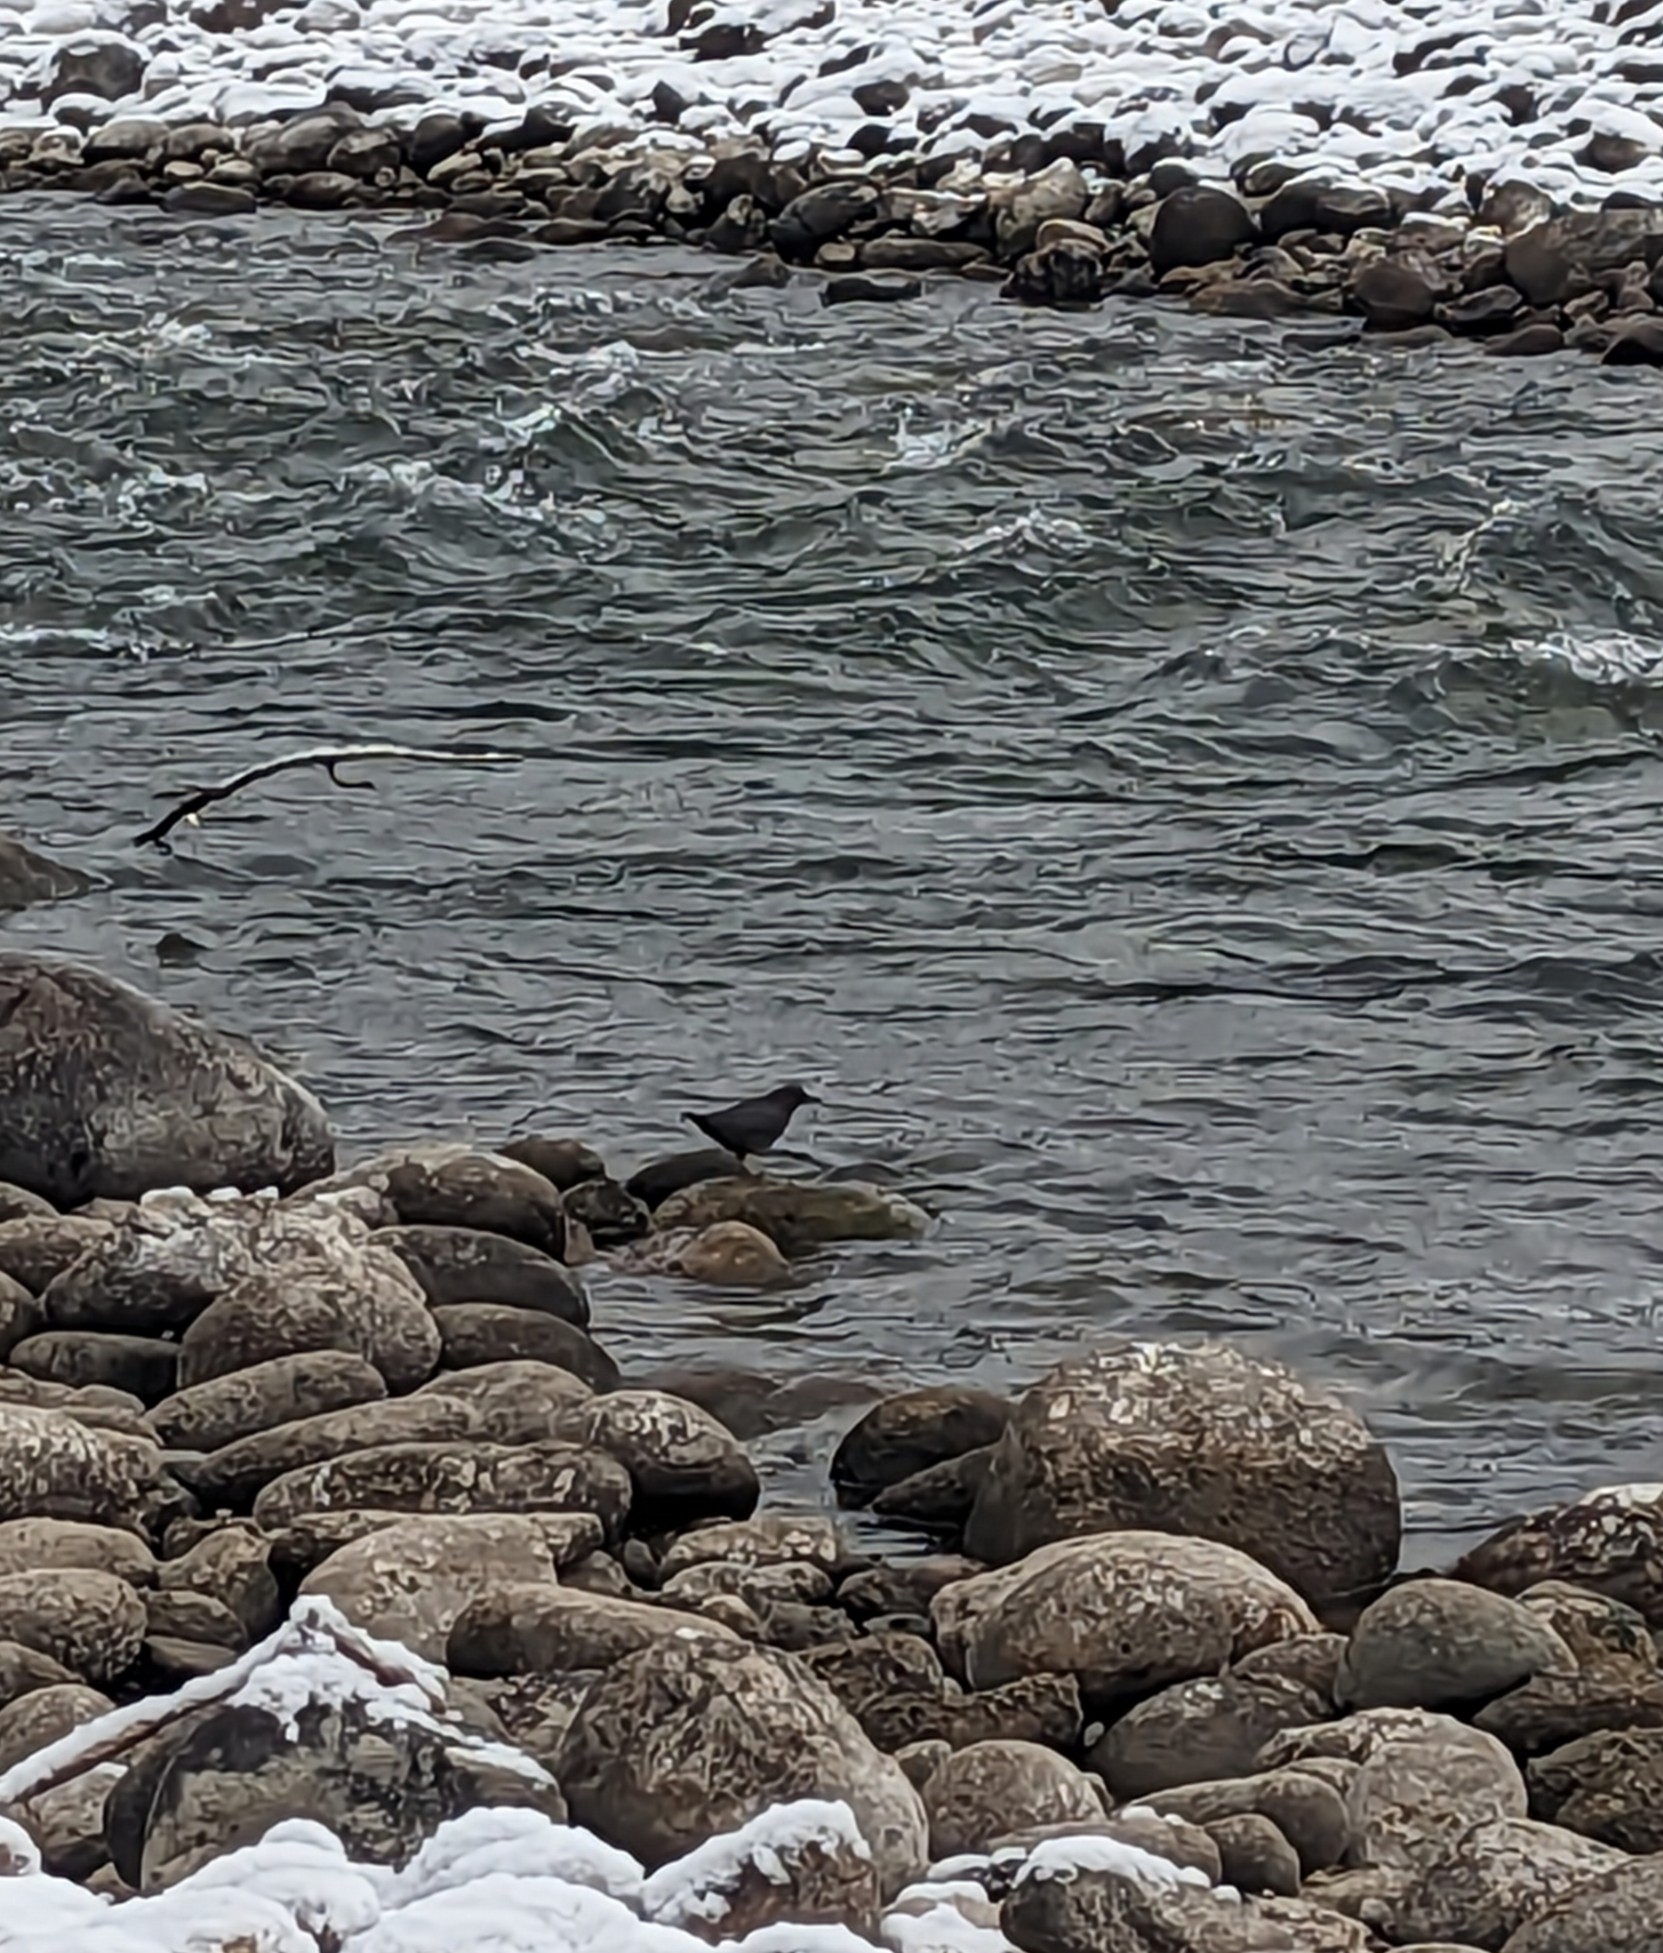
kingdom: Animalia
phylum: Chordata
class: Aves
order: Passeriformes
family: Cinclidae
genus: Cinclus
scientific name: Cinclus mexicanus
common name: American dipper
